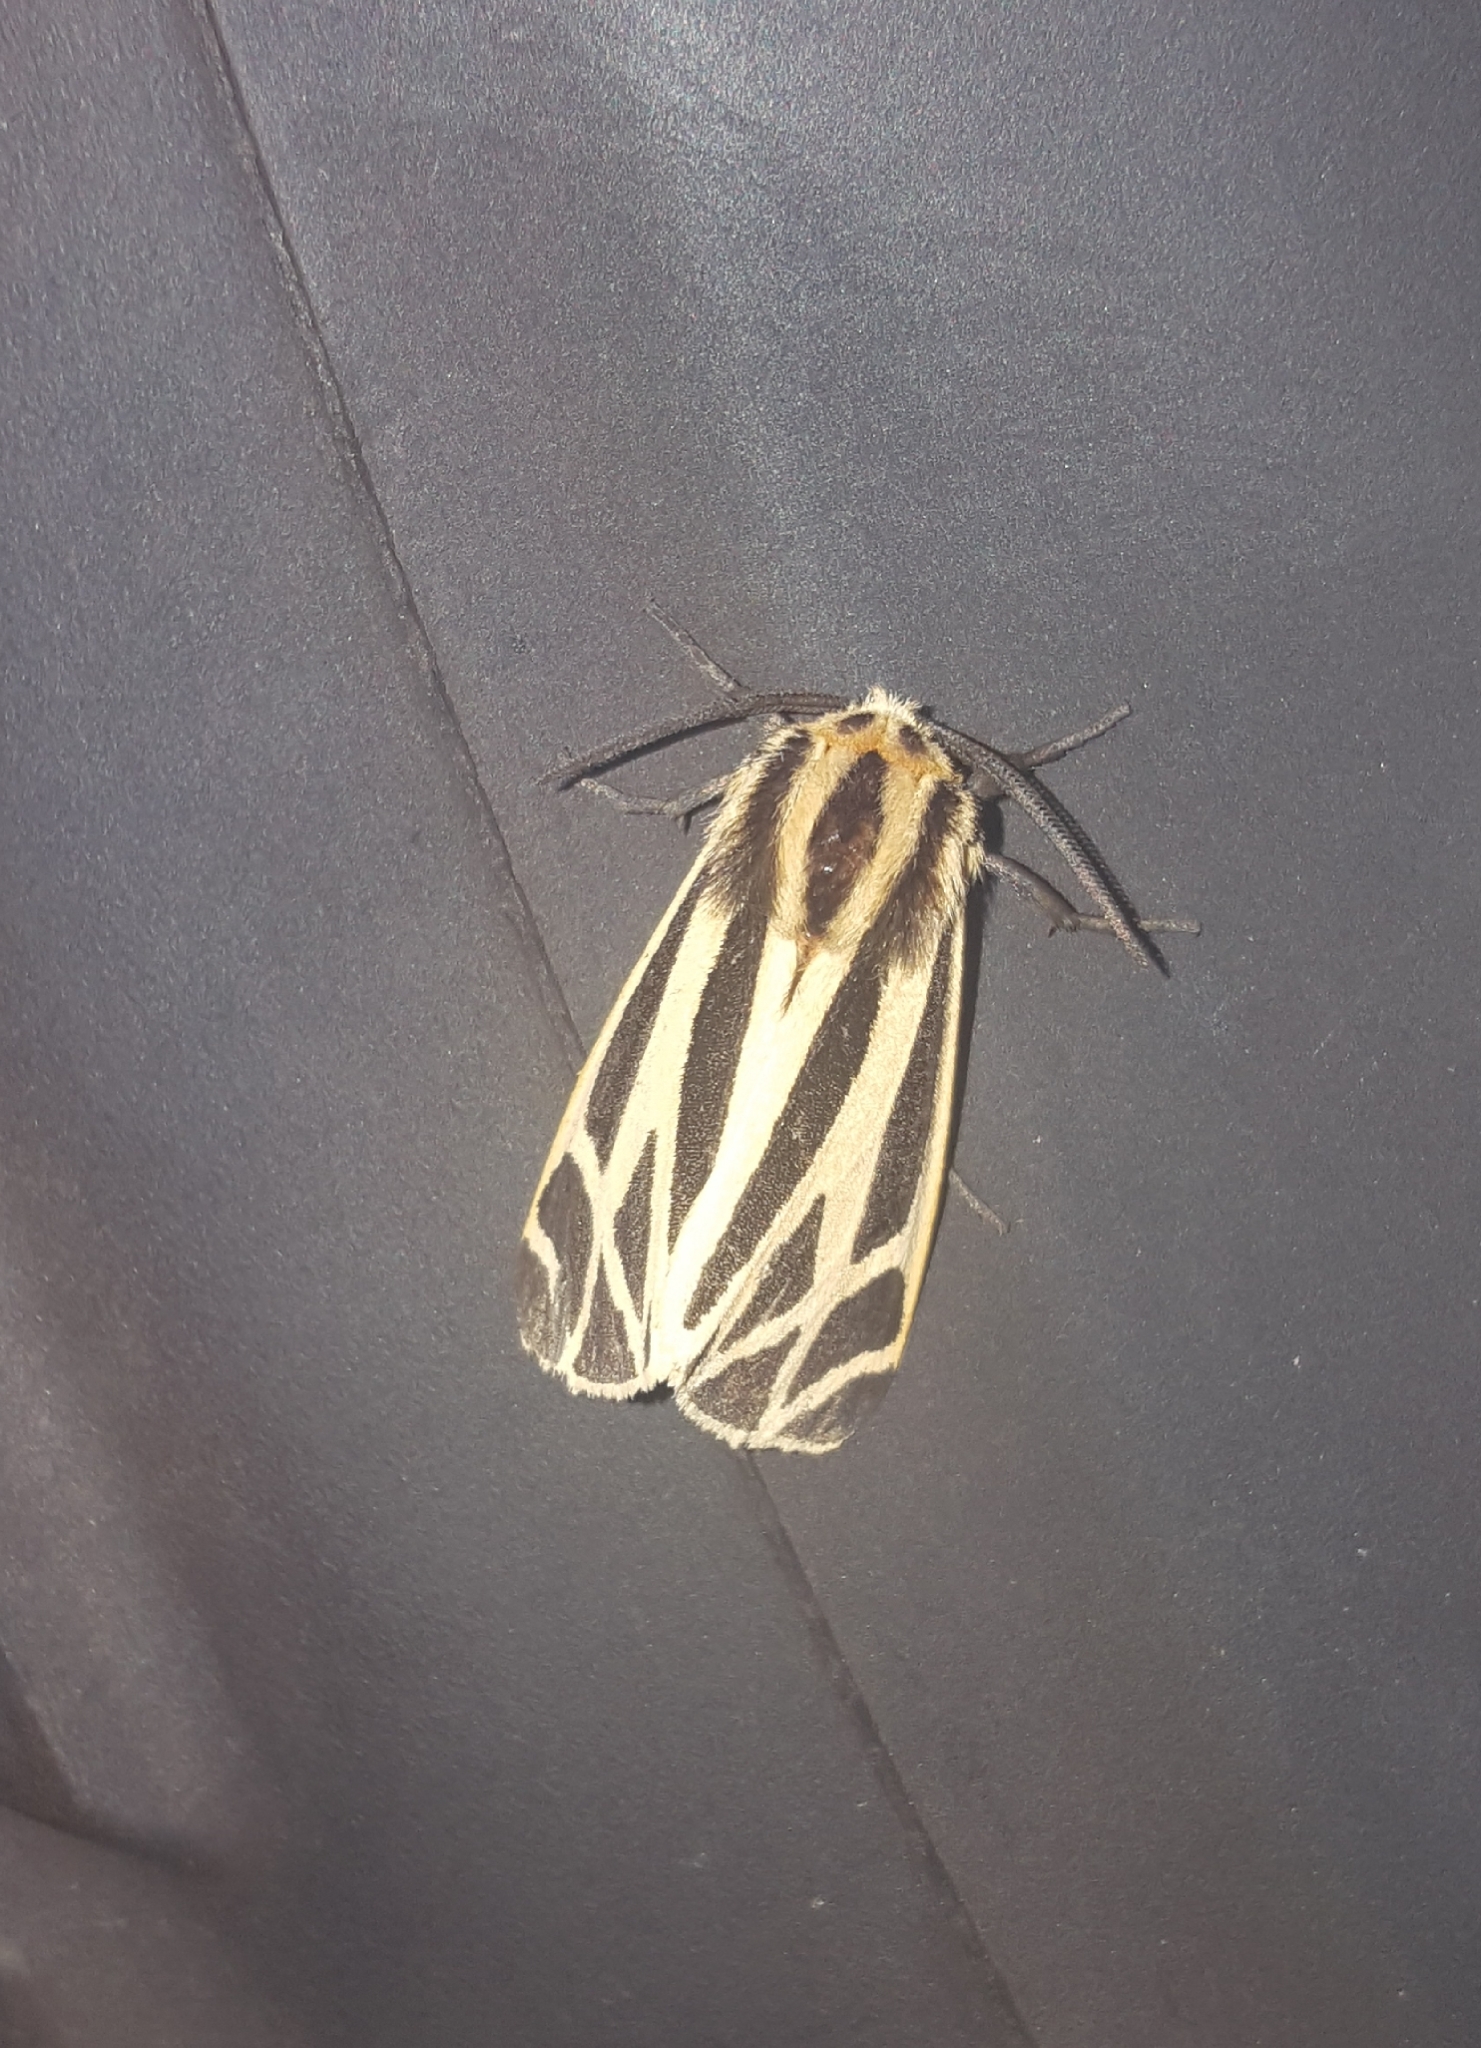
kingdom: Animalia
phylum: Arthropoda
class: Insecta
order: Lepidoptera
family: Erebidae
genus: Apantesis
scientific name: Apantesis phalerata
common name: Harnessed tiger moth
